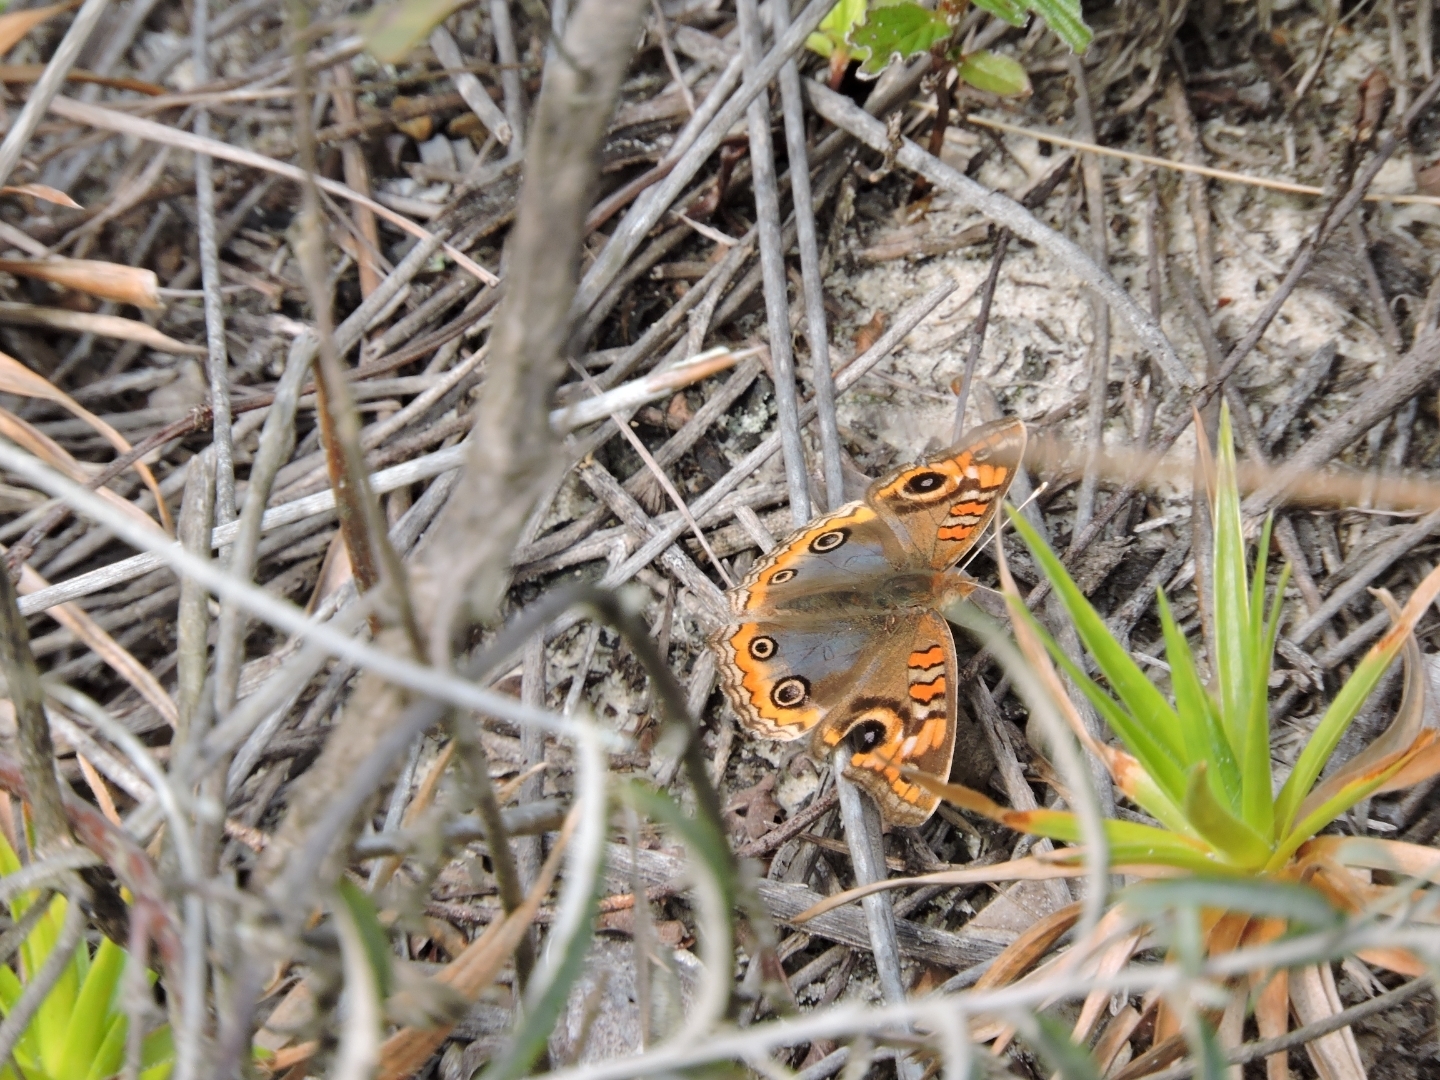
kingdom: Animalia
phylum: Arthropoda
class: Insecta
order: Lepidoptera
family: Nymphalidae
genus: Junonia
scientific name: Junonia evarete
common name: Black mangrove buckeye
